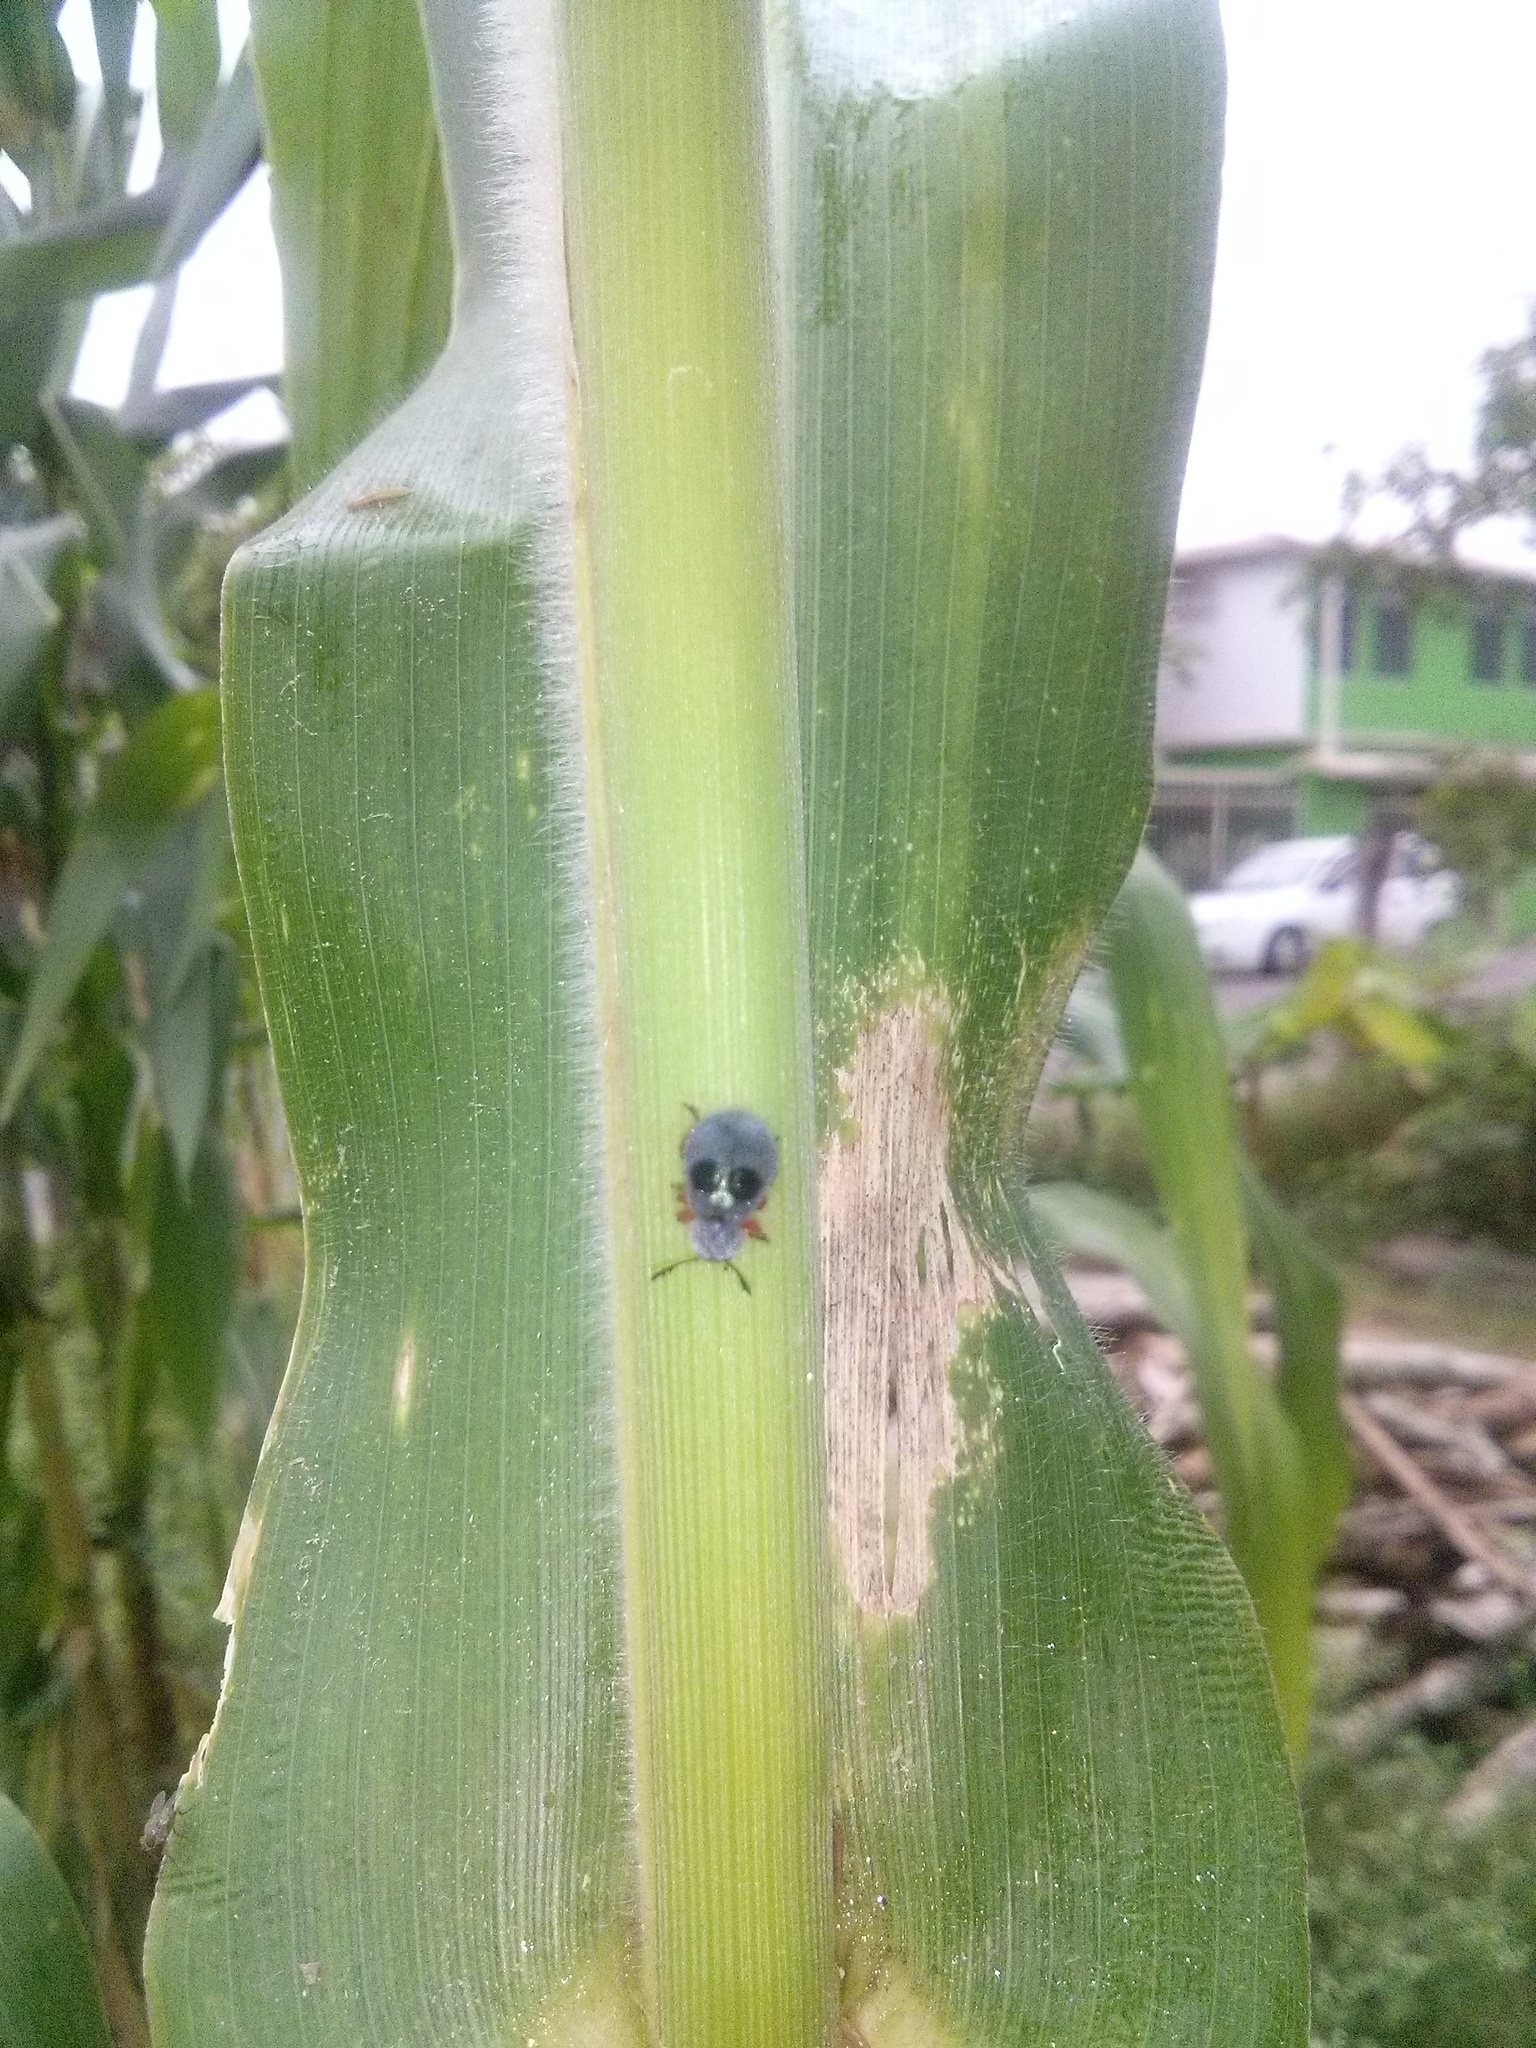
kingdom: Animalia
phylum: Arthropoda
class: Insecta
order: Coleoptera
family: Cleridae
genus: Chariessa
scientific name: Chariessa vestita
